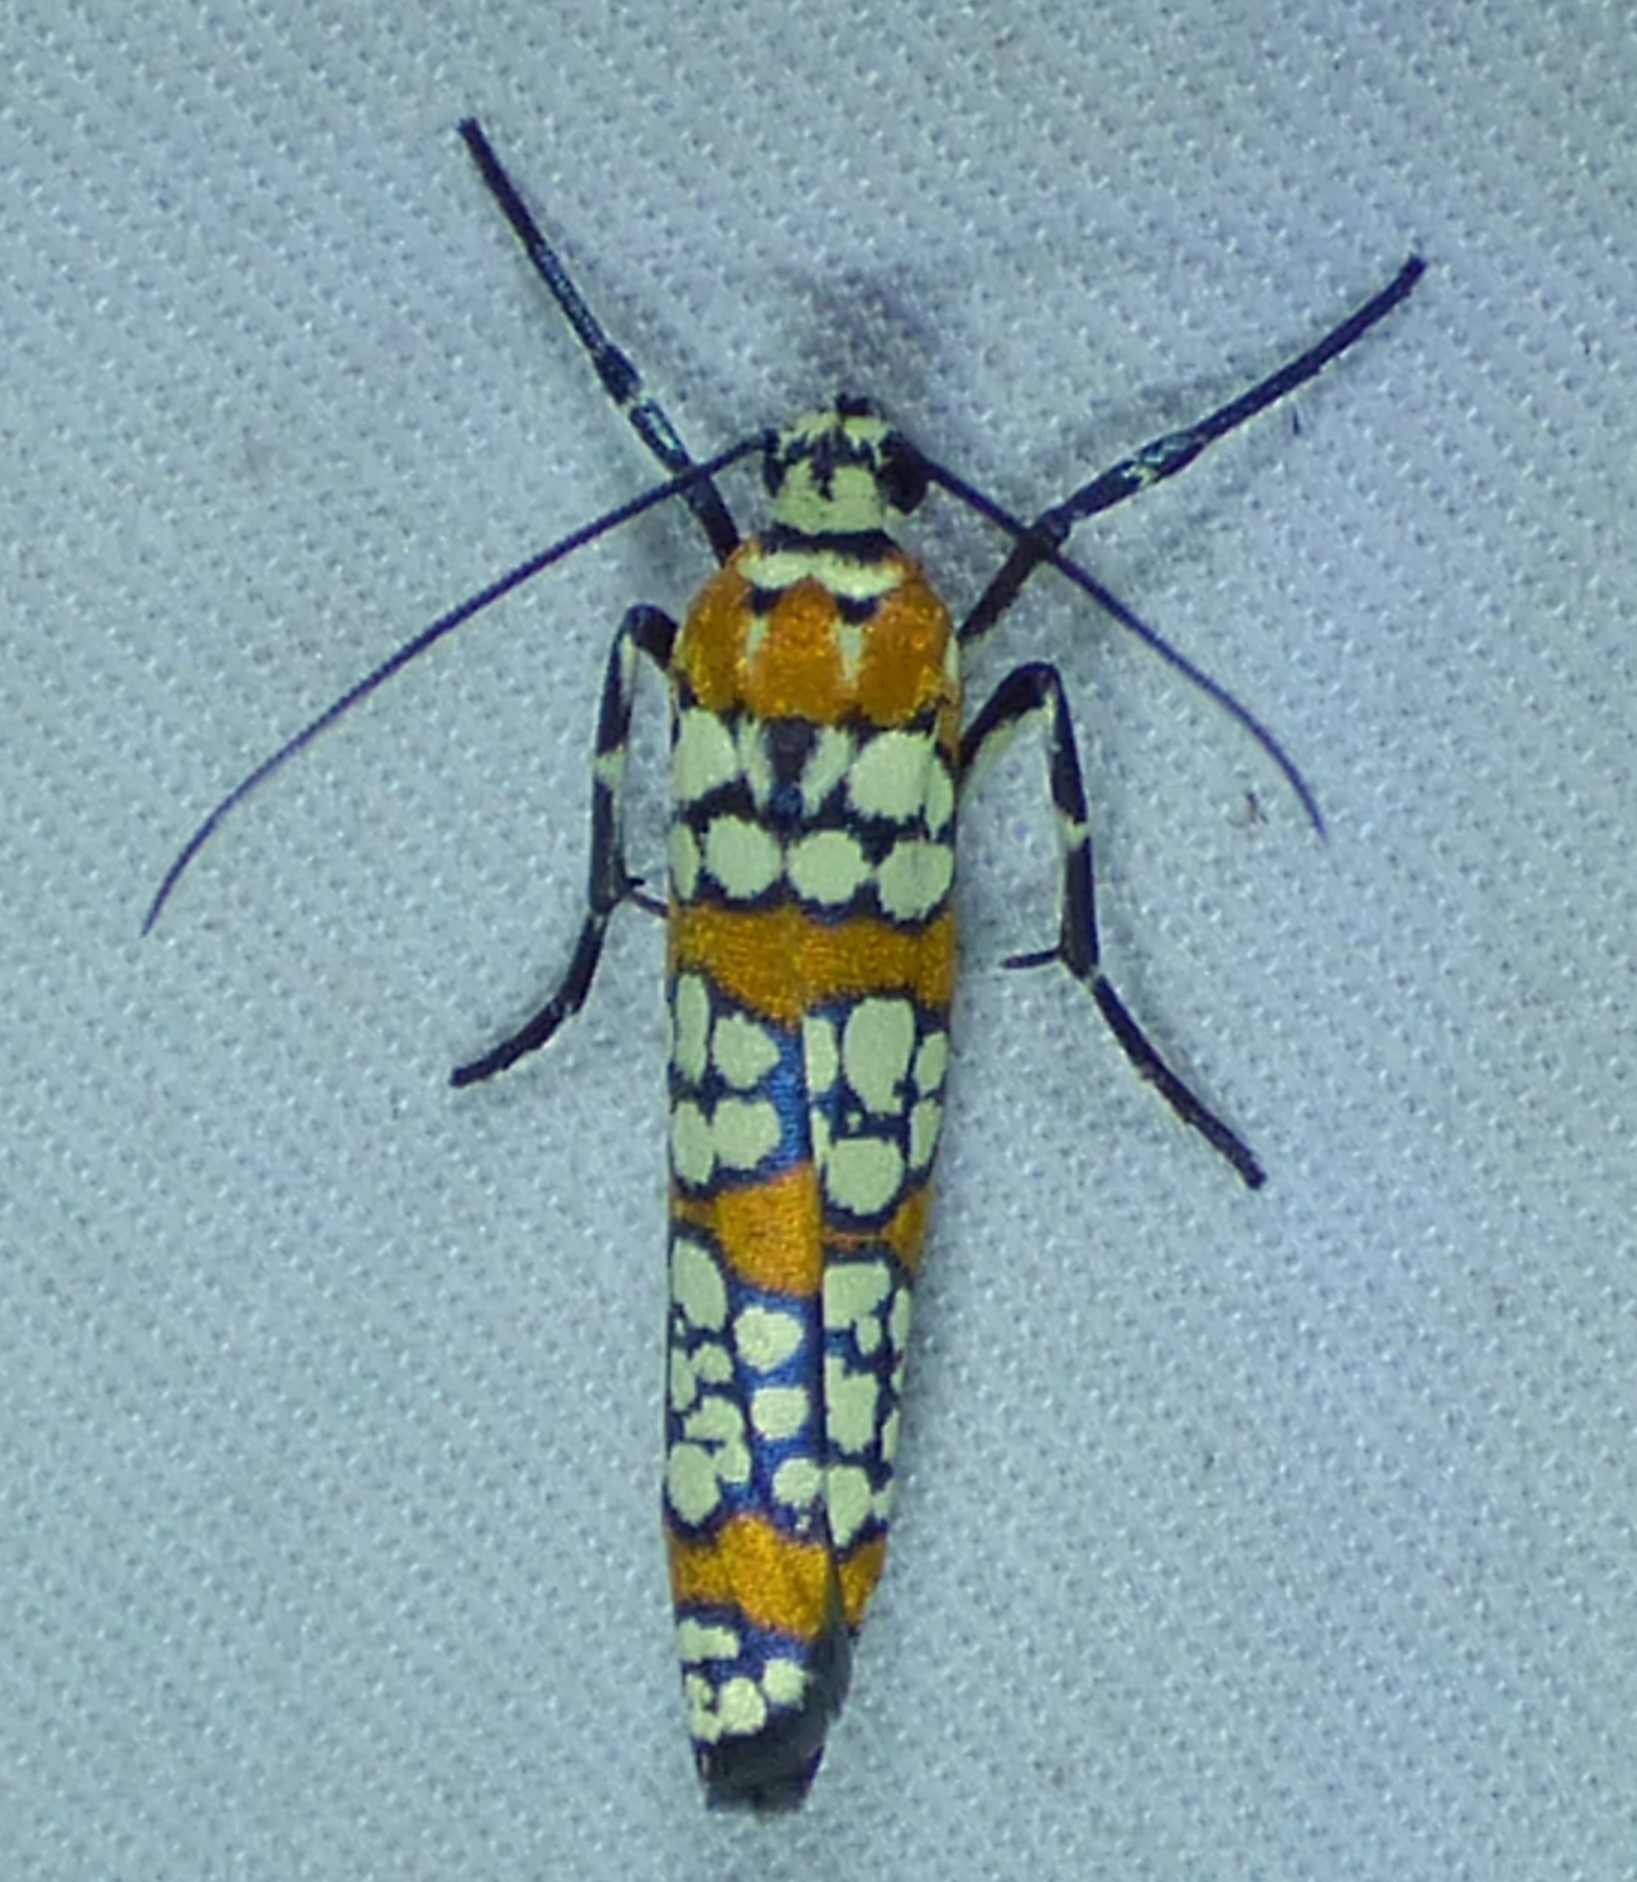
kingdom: Animalia
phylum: Arthropoda
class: Insecta
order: Lepidoptera
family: Attevidae
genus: Atteva
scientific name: Atteva punctella
